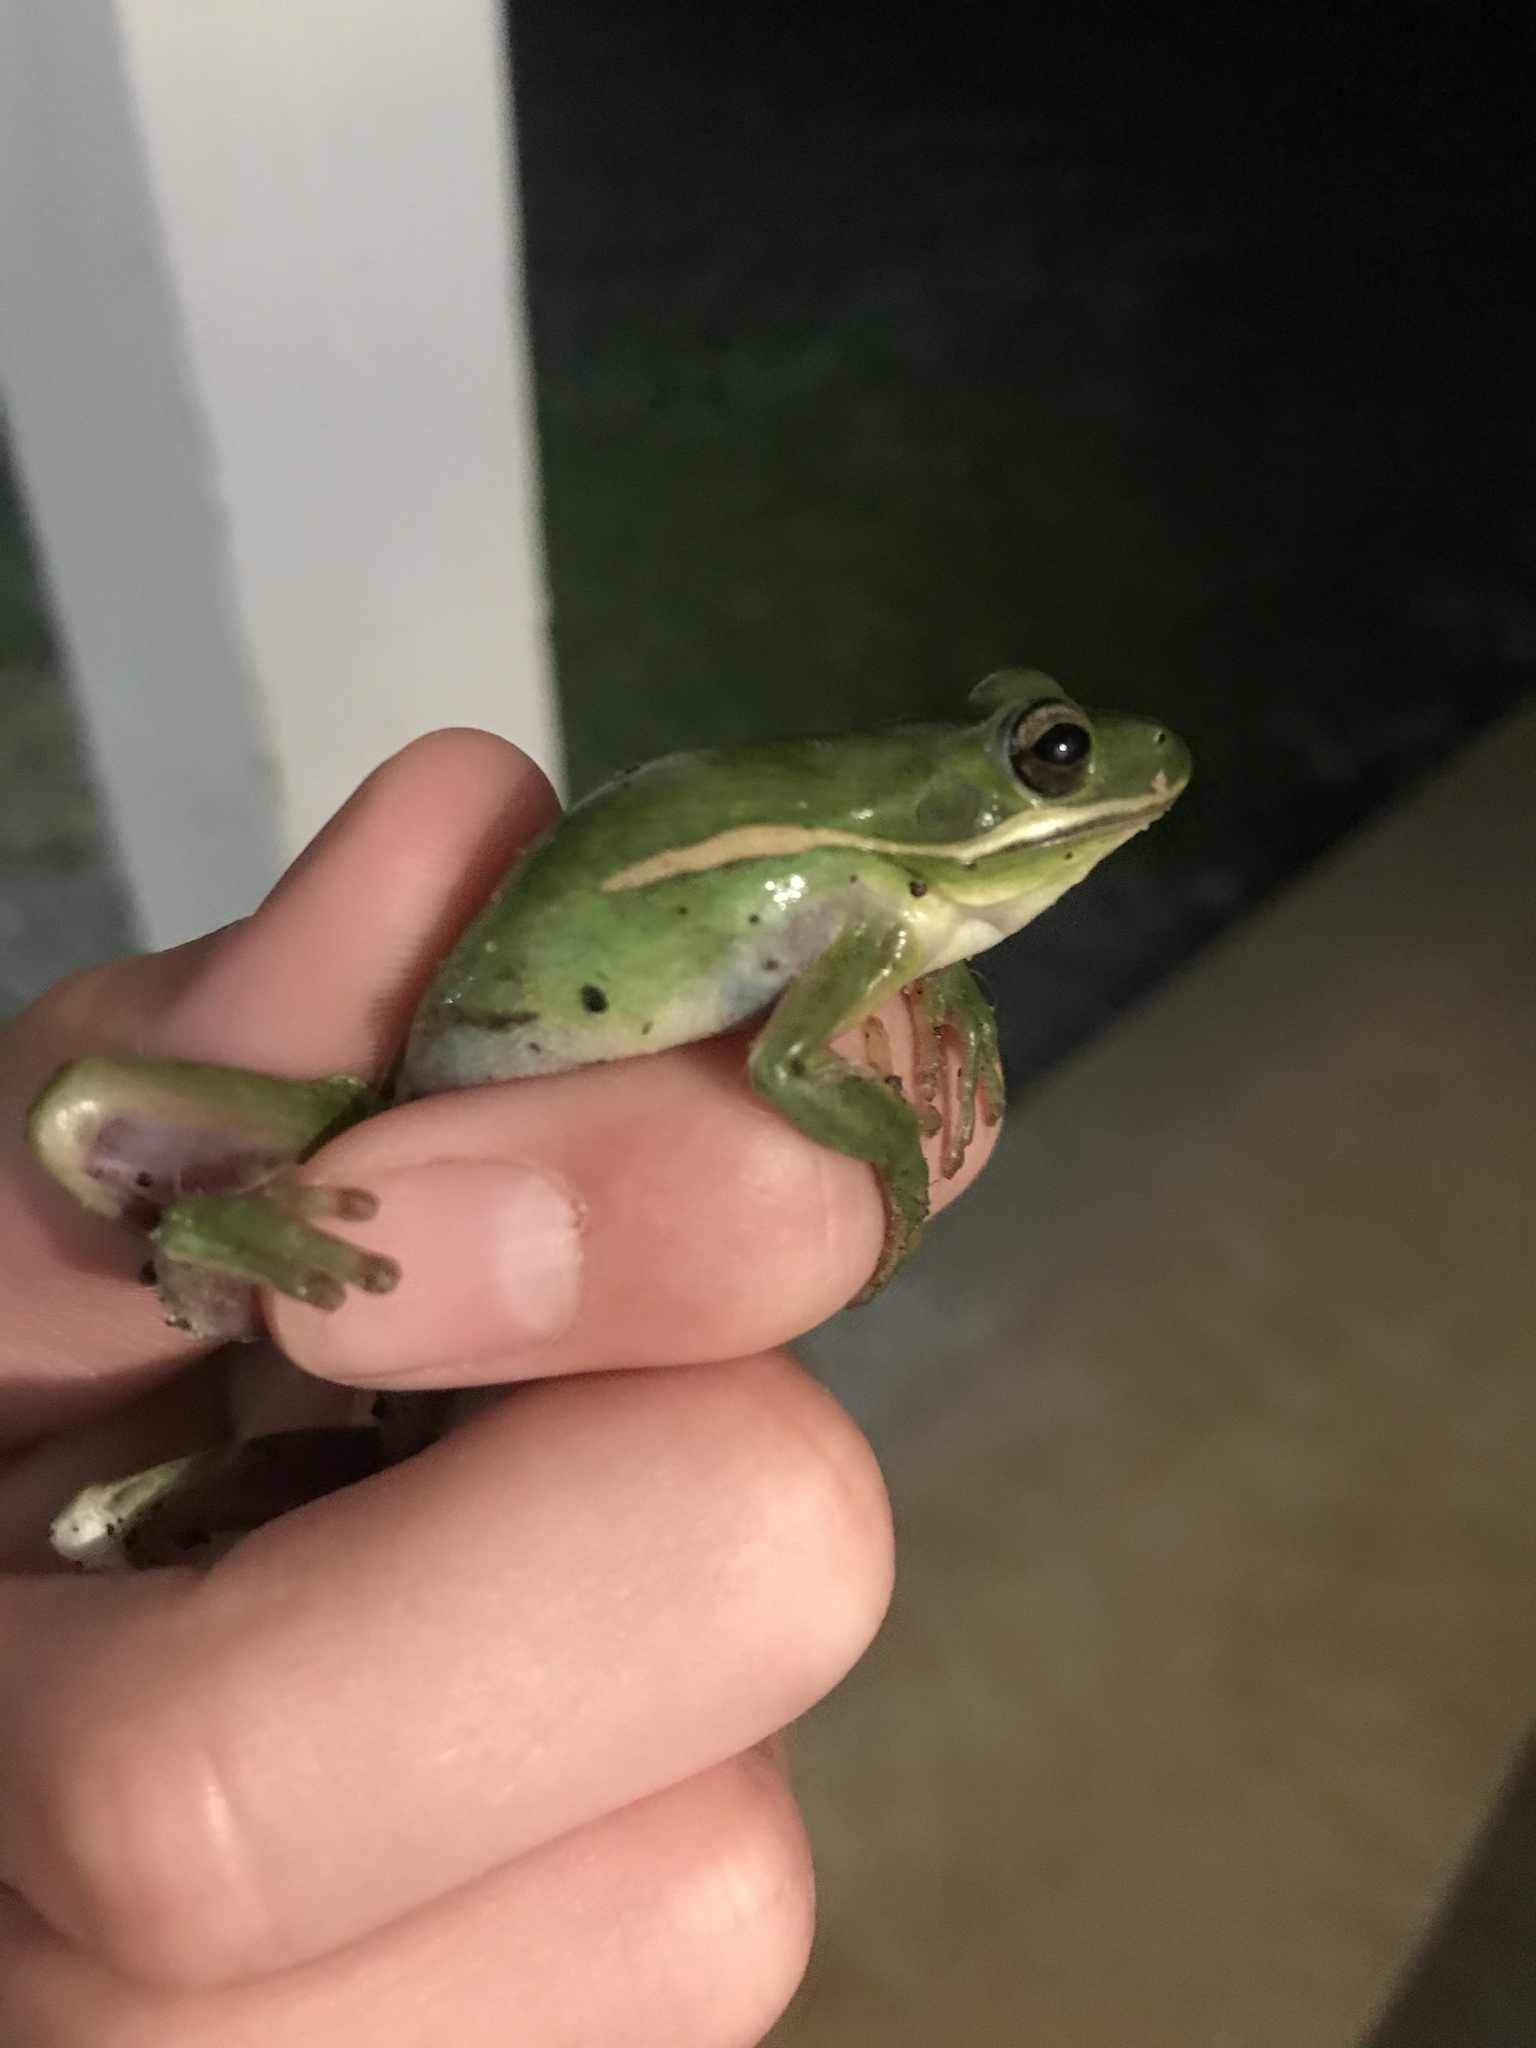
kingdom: Animalia
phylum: Chordata
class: Amphibia
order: Anura
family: Hylidae
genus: Dryophytes
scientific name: Dryophytes cinereus
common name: Green treefrog
